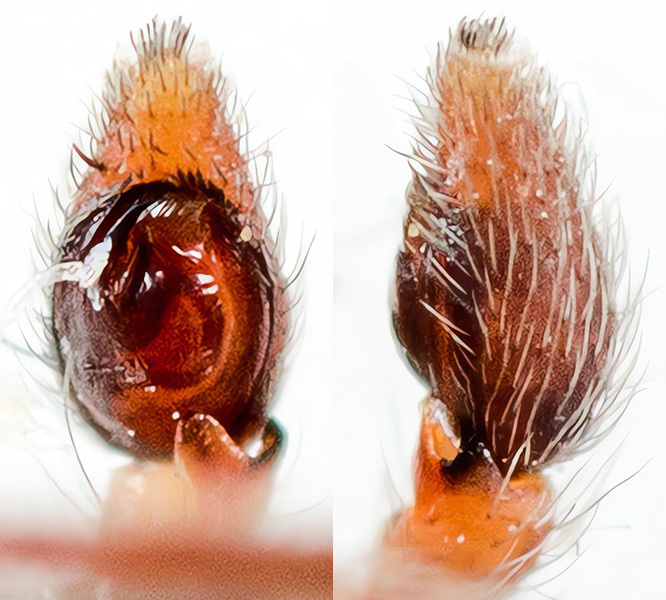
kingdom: Animalia
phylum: Arthropoda
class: Arachnida
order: Araneae
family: Philodromidae
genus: Rhysodromus
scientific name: Rhysodromus pictus
